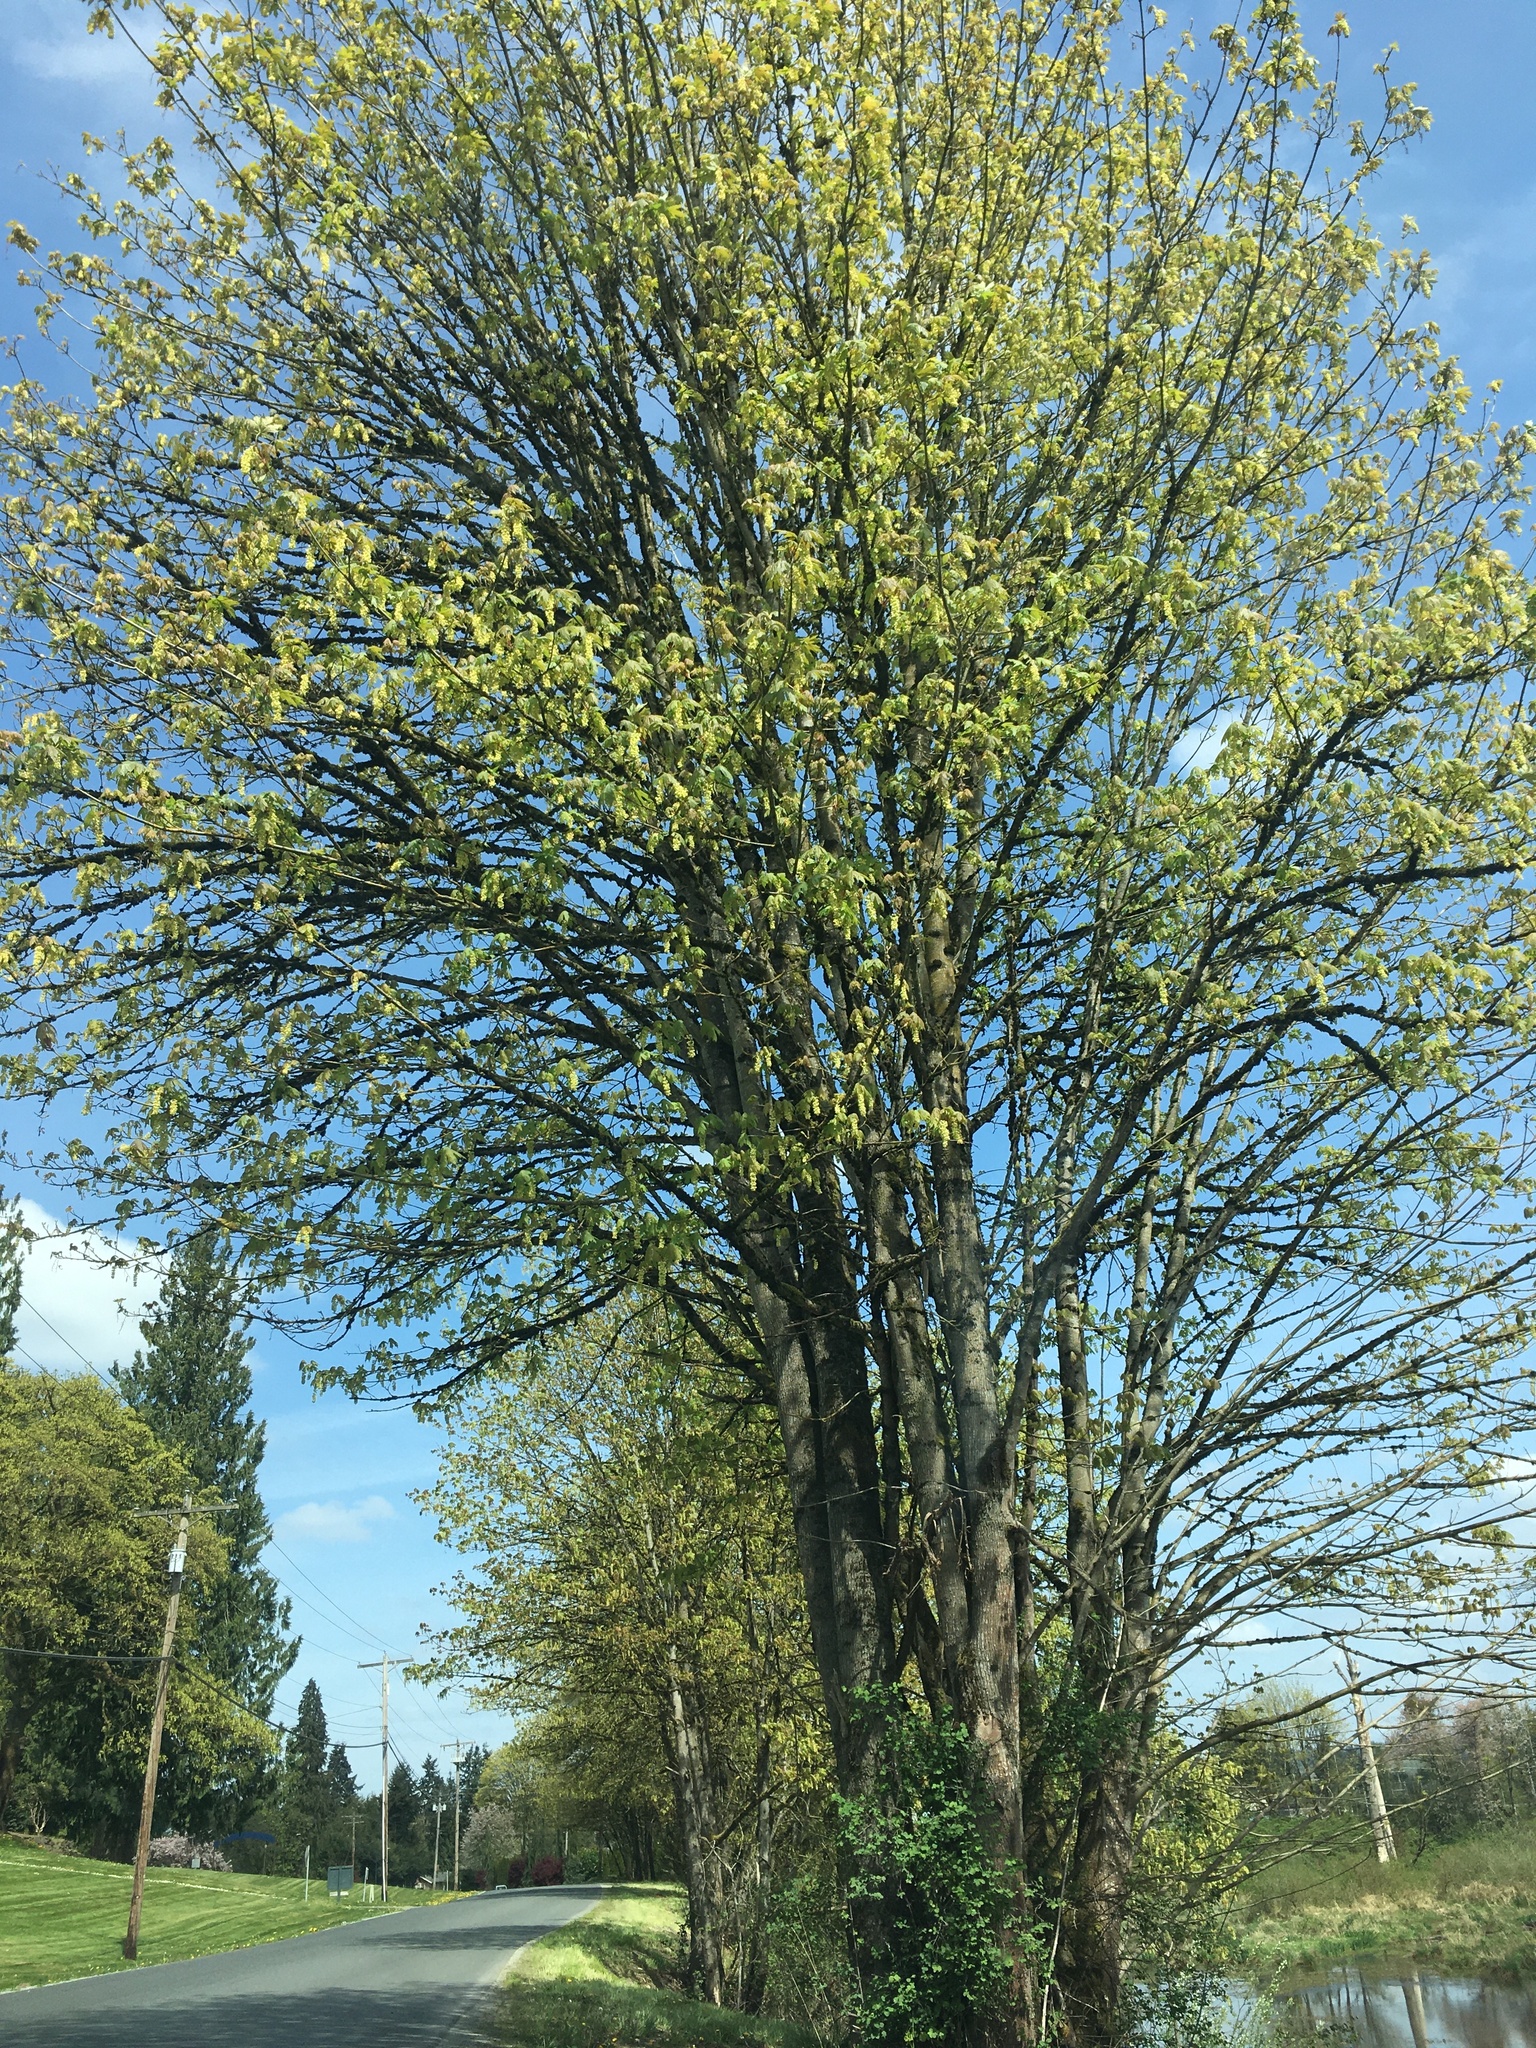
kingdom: Plantae
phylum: Tracheophyta
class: Magnoliopsida
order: Sapindales
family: Sapindaceae
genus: Acer
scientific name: Acer macrophyllum
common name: Oregon maple
